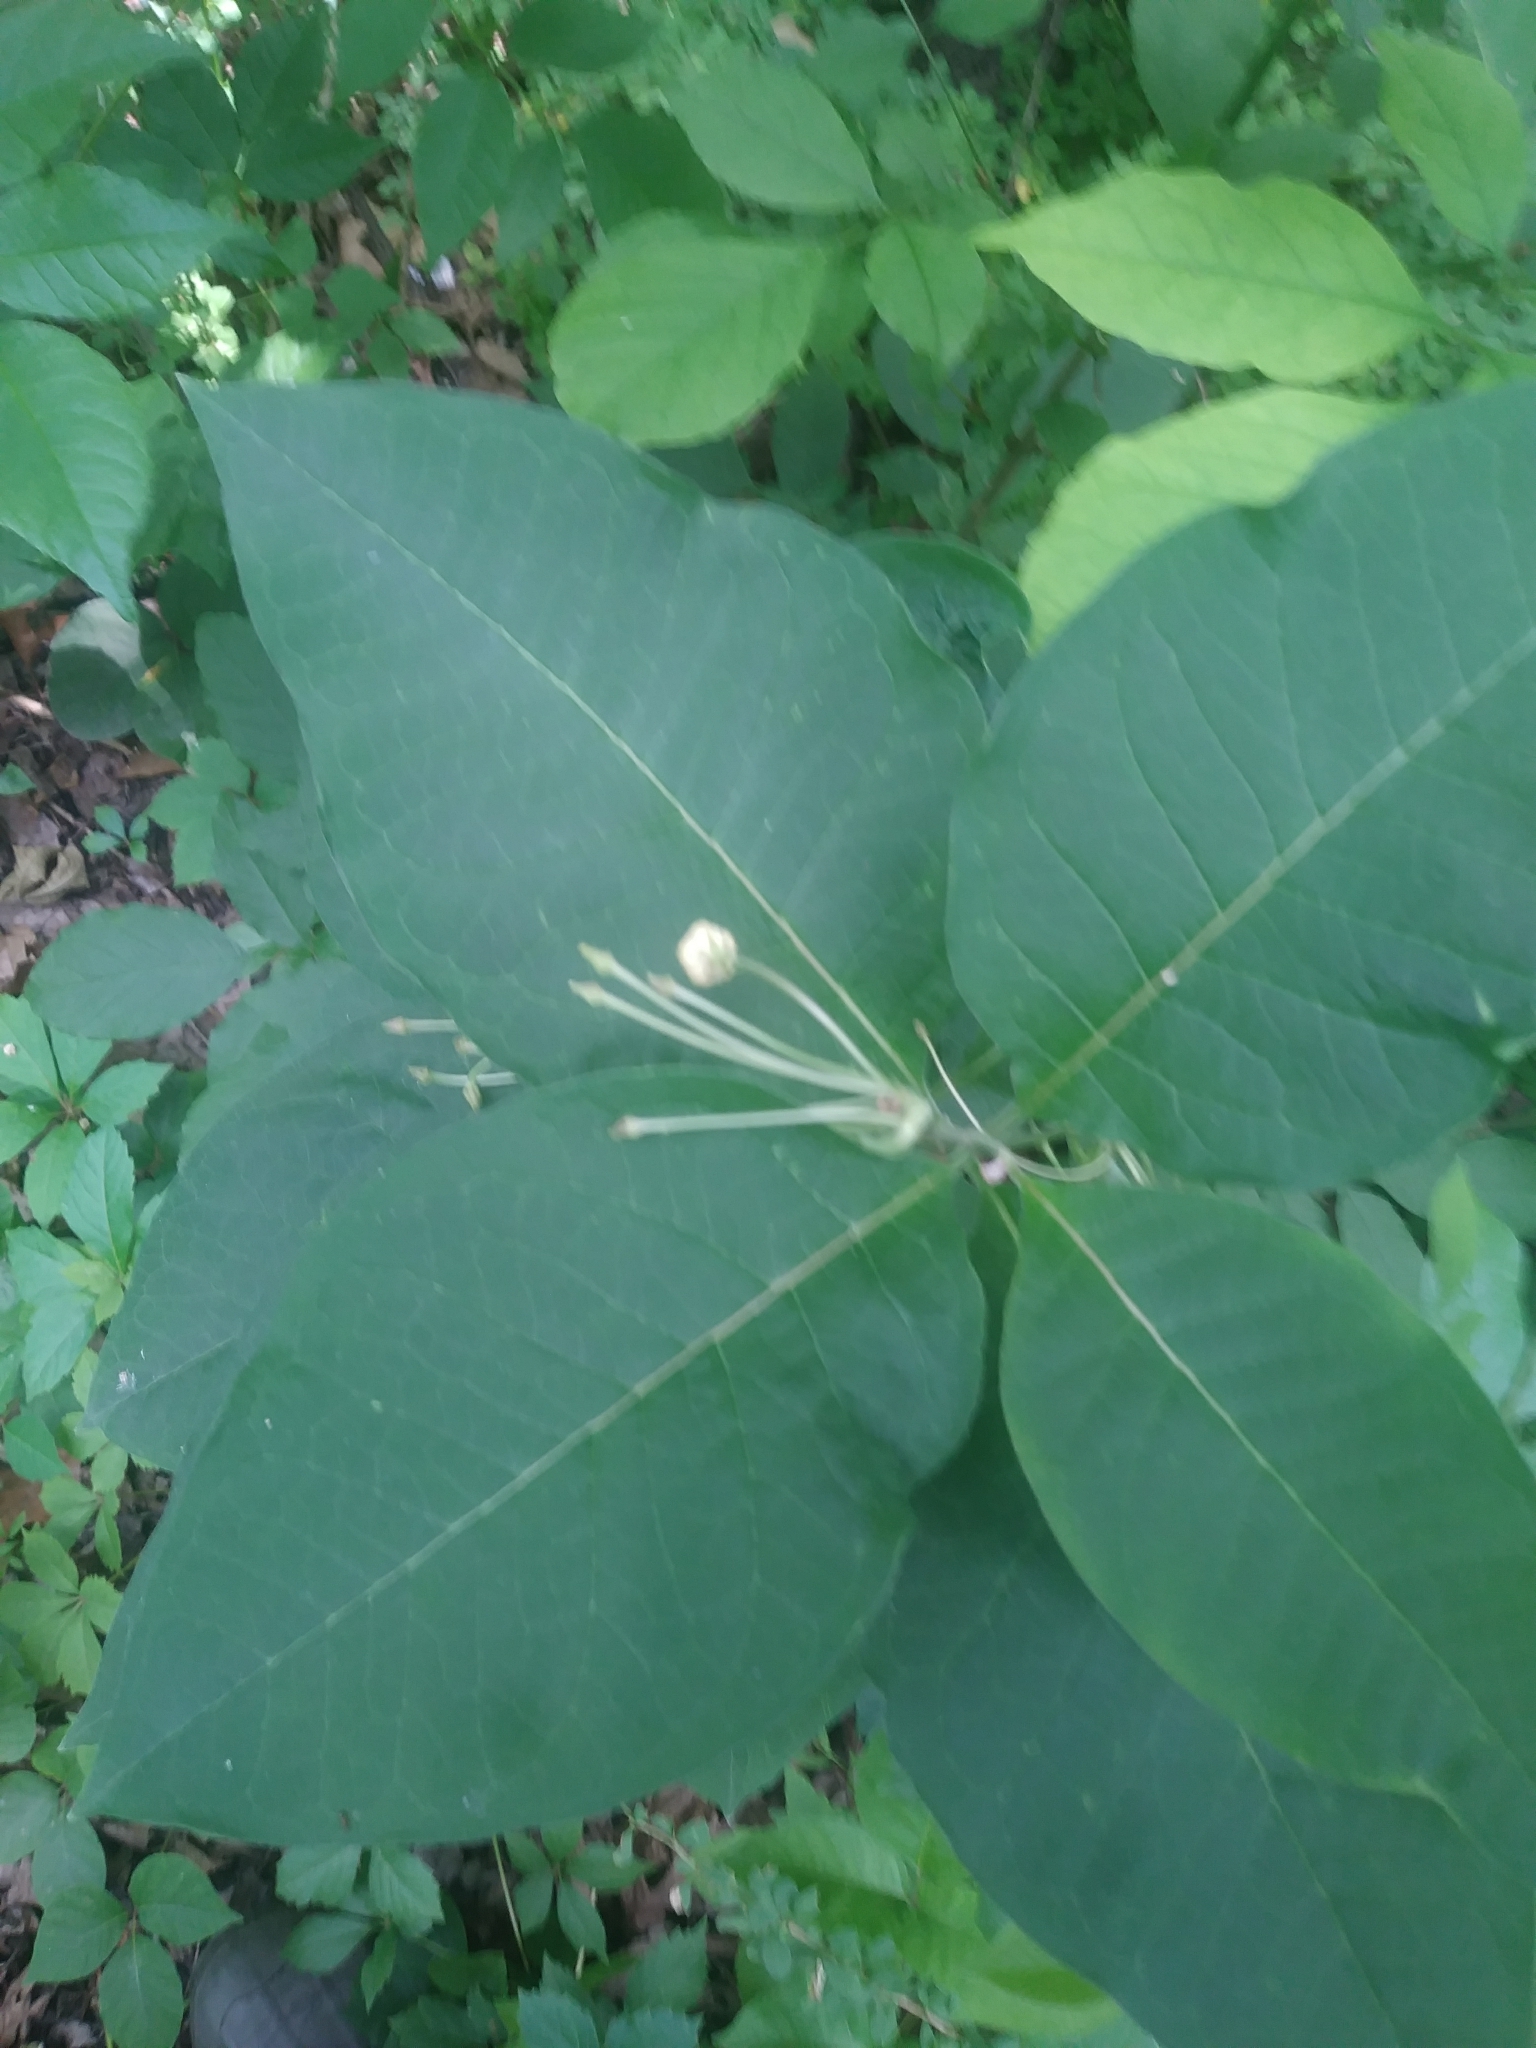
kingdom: Plantae
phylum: Tracheophyta
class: Magnoliopsida
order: Gentianales
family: Apocynaceae
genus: Asclepias
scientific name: Asclepias exaltata
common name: Poke milkweed
